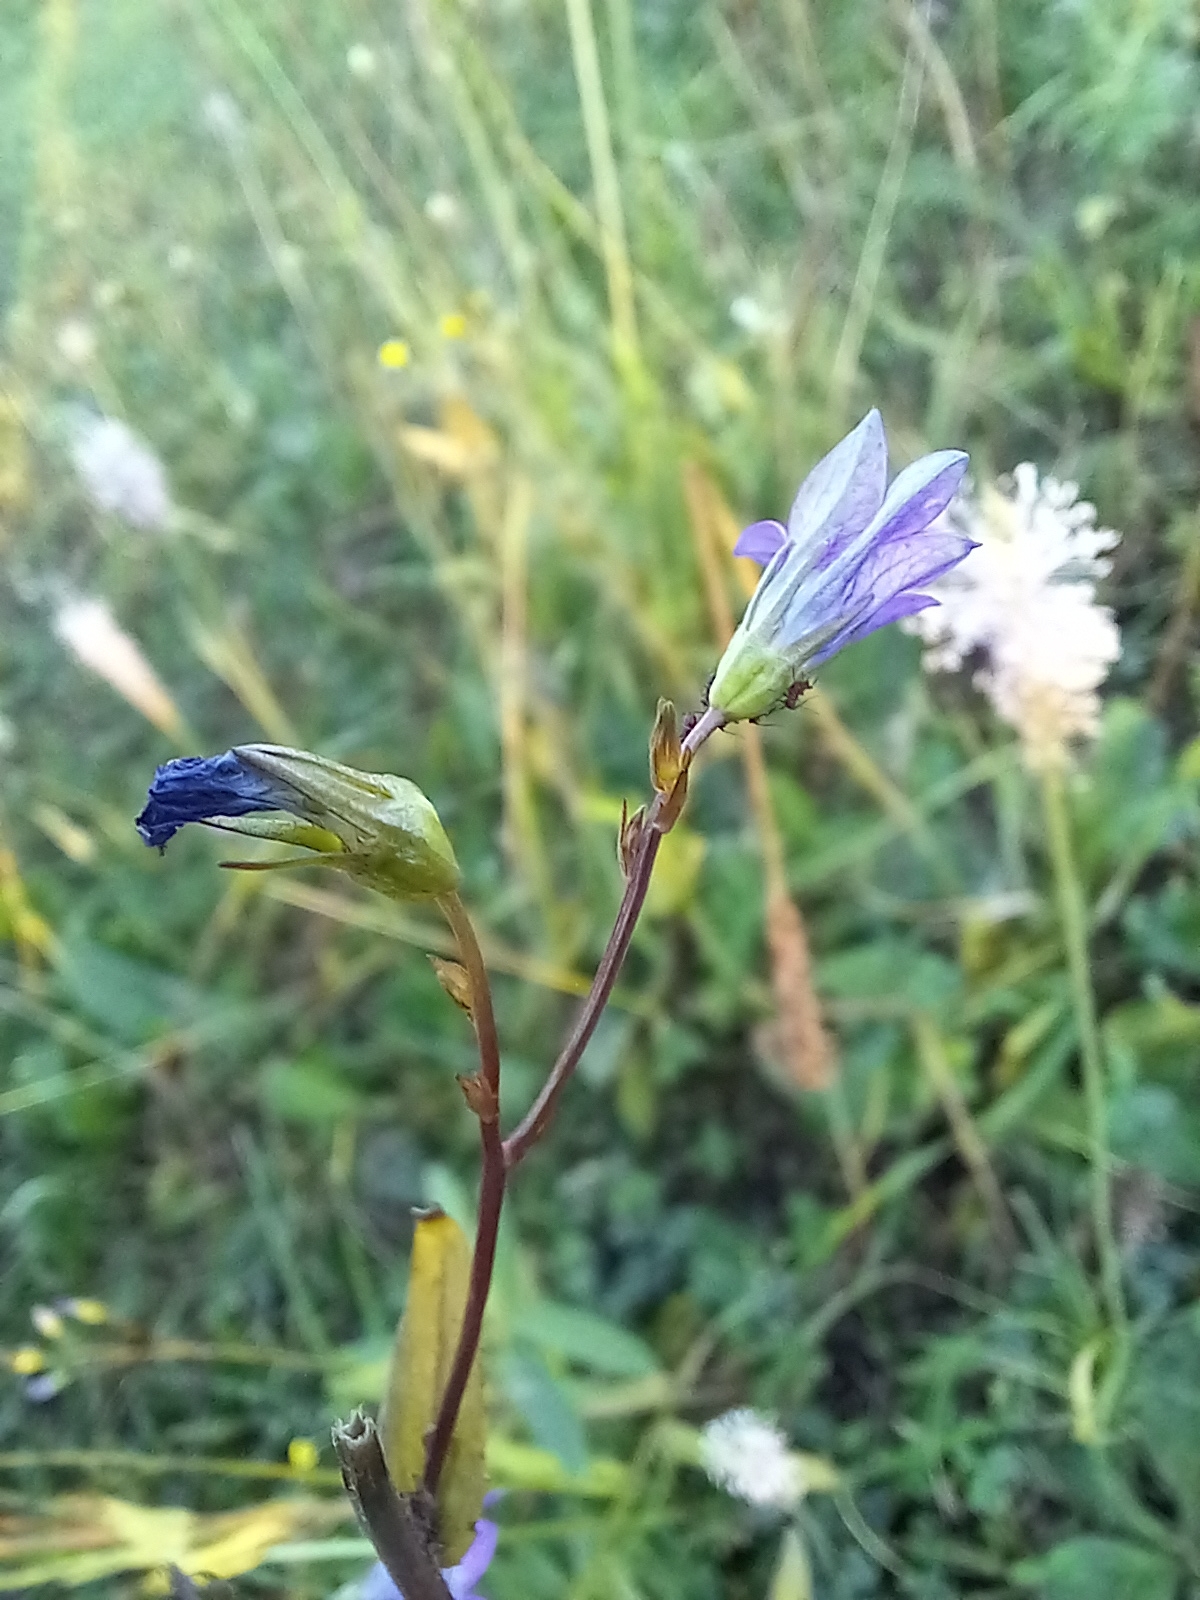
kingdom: Plantae
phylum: Tracheophyta
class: Magnoliopsida
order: Asterales
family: Campanulaceae
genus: Campanula
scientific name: Campanula patula
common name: Spreading bellflower
